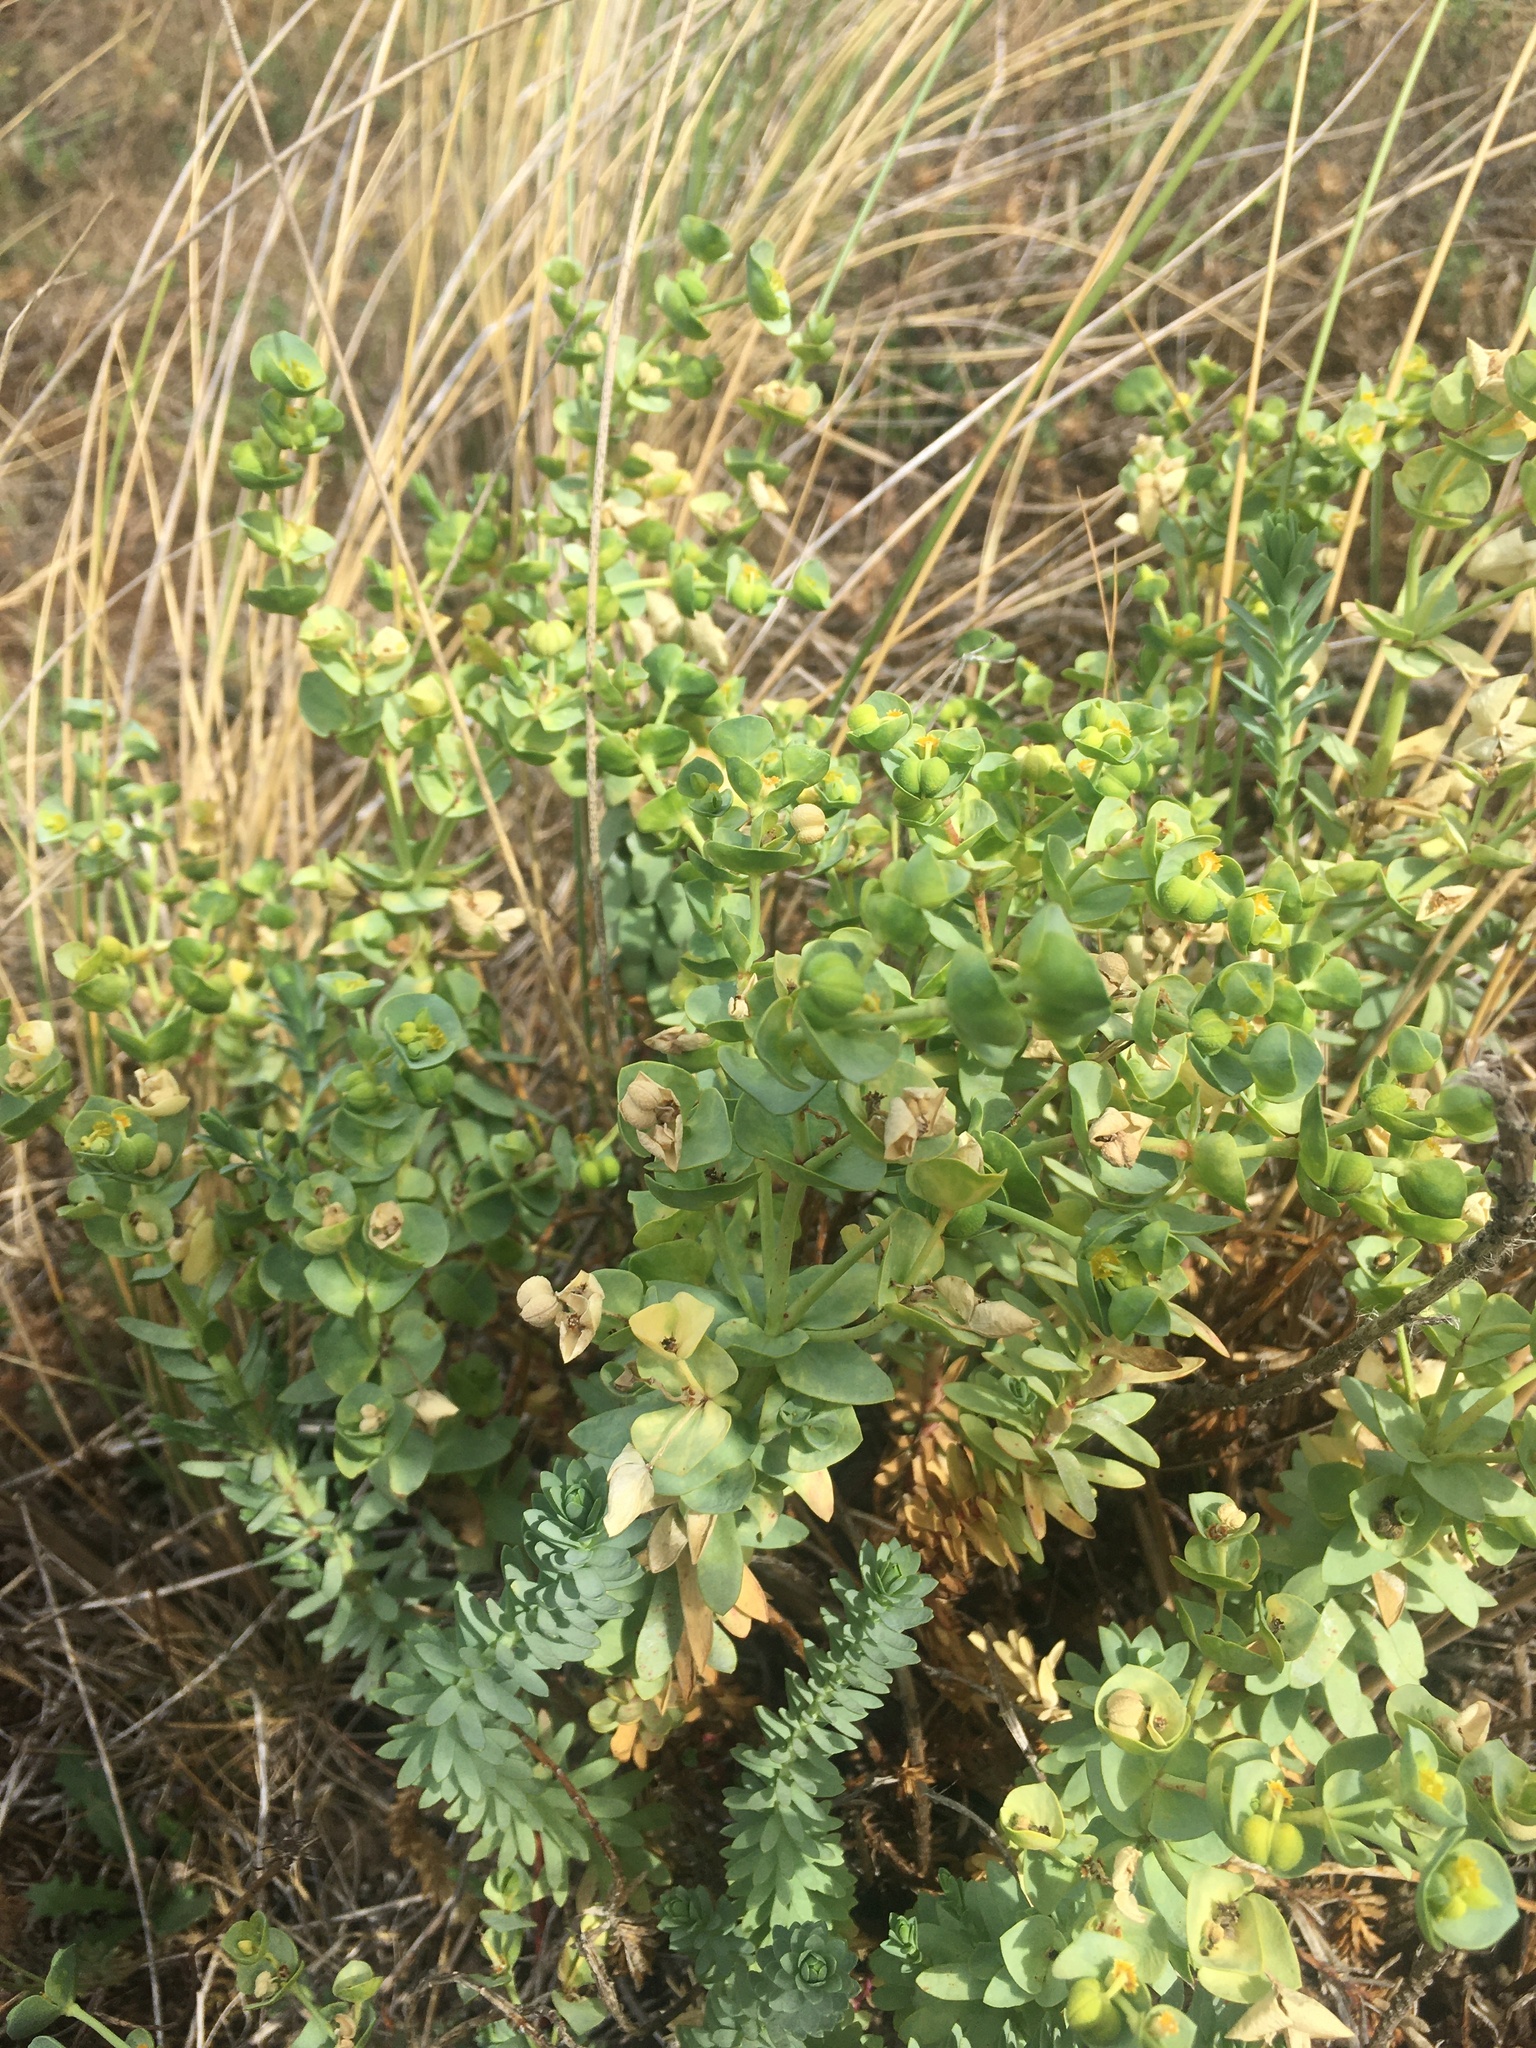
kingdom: Plantae
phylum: Tracheophyta
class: Magnoliopsida
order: Malpighiales
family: Euphorbiaceae
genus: Euphorbia
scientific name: Euphorbia paralias
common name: Sea spurge
